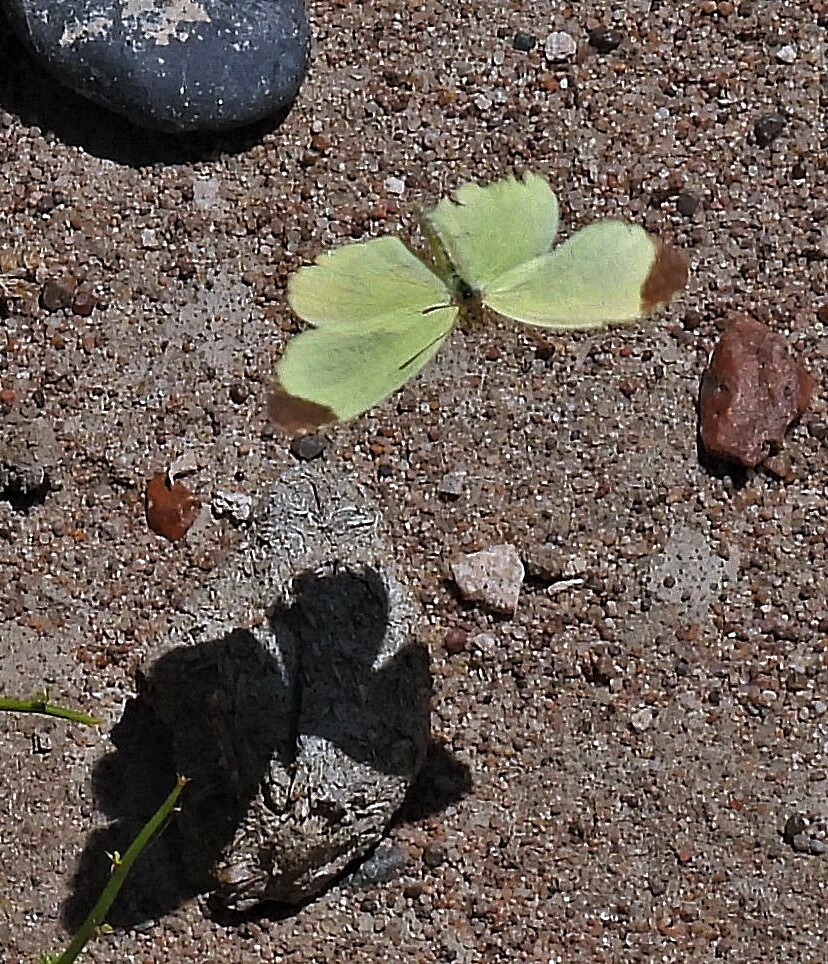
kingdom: Animalia
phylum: Arthropoda
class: Insecta
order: Lepidoptera
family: Pieridae
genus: Teriocolias
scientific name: Teriocolias
